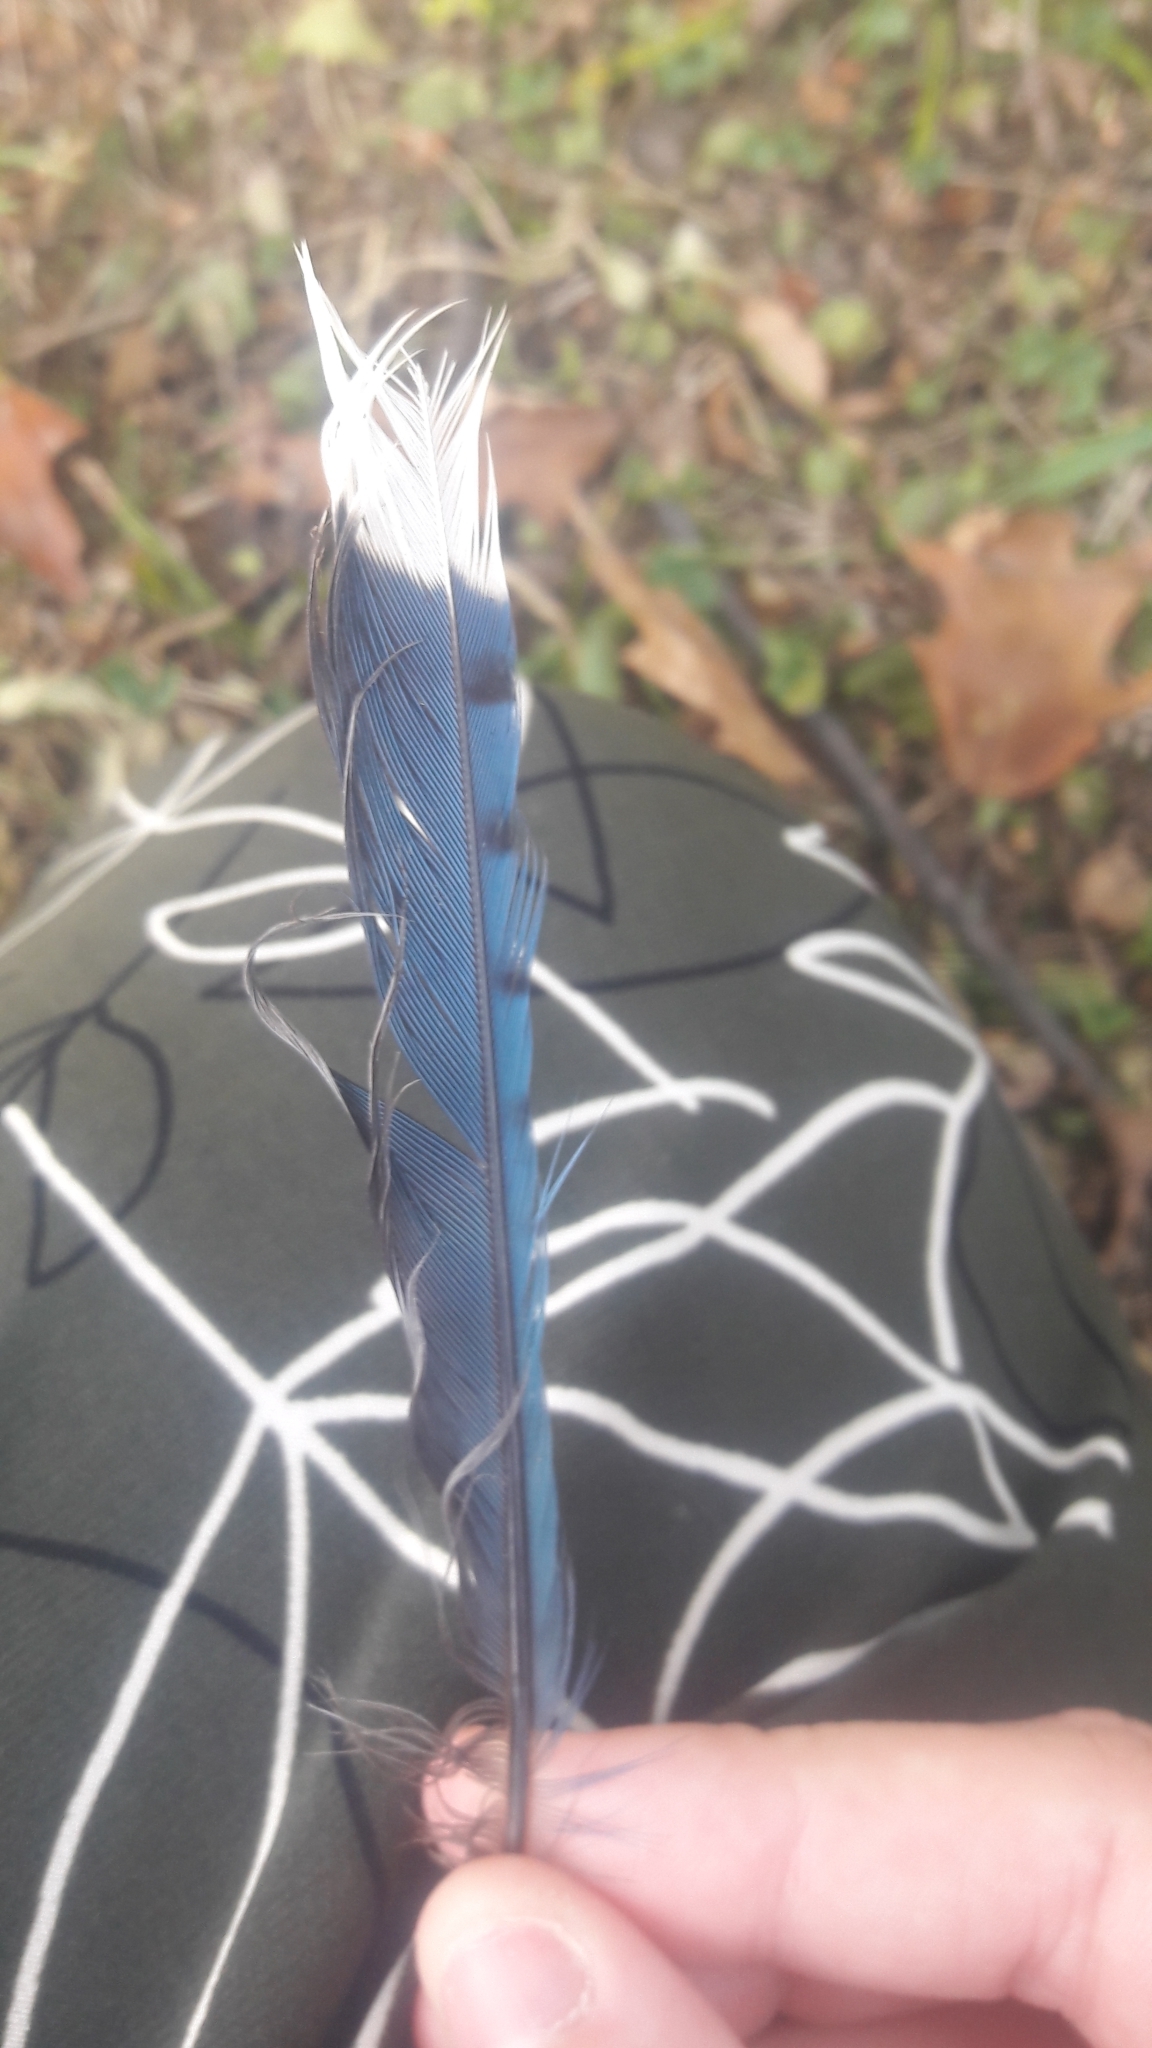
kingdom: Animalia
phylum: Chordata
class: Aves
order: Passeriformes
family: Corvidae
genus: Cyanocitta
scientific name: Cyanocitta cristata
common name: Blue jay
